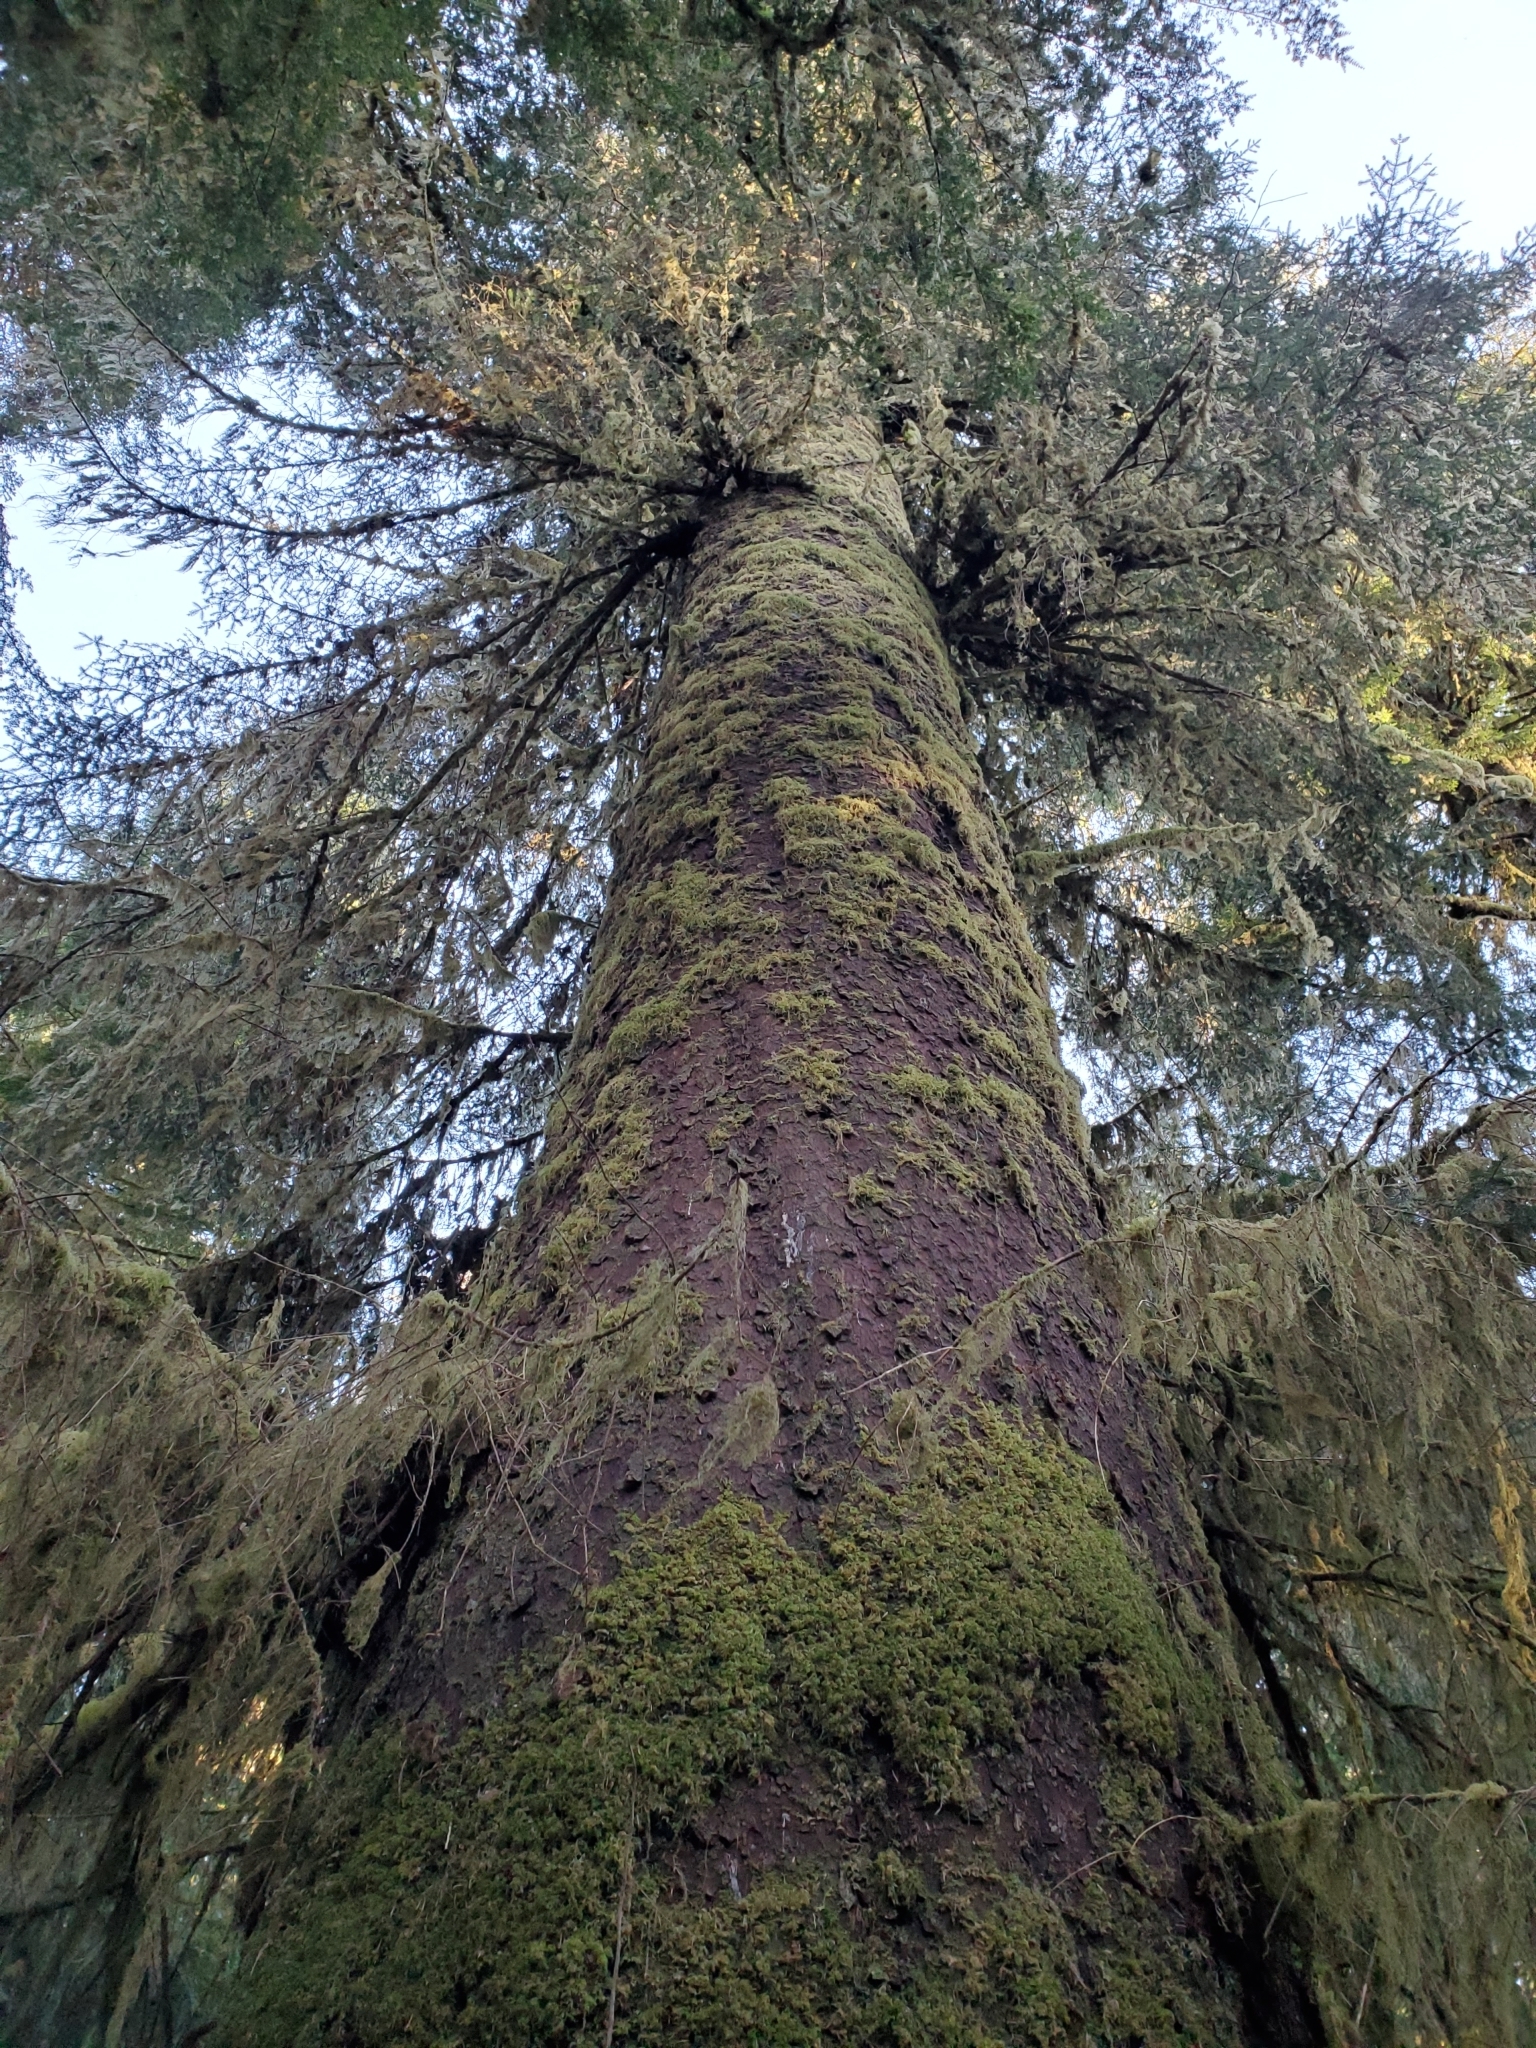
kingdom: Plantae
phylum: Tracheophyta
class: Pinopsida
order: Pinales
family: Pinaceae
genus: Picea
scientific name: Picea sitchensis
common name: Sitka spruce
